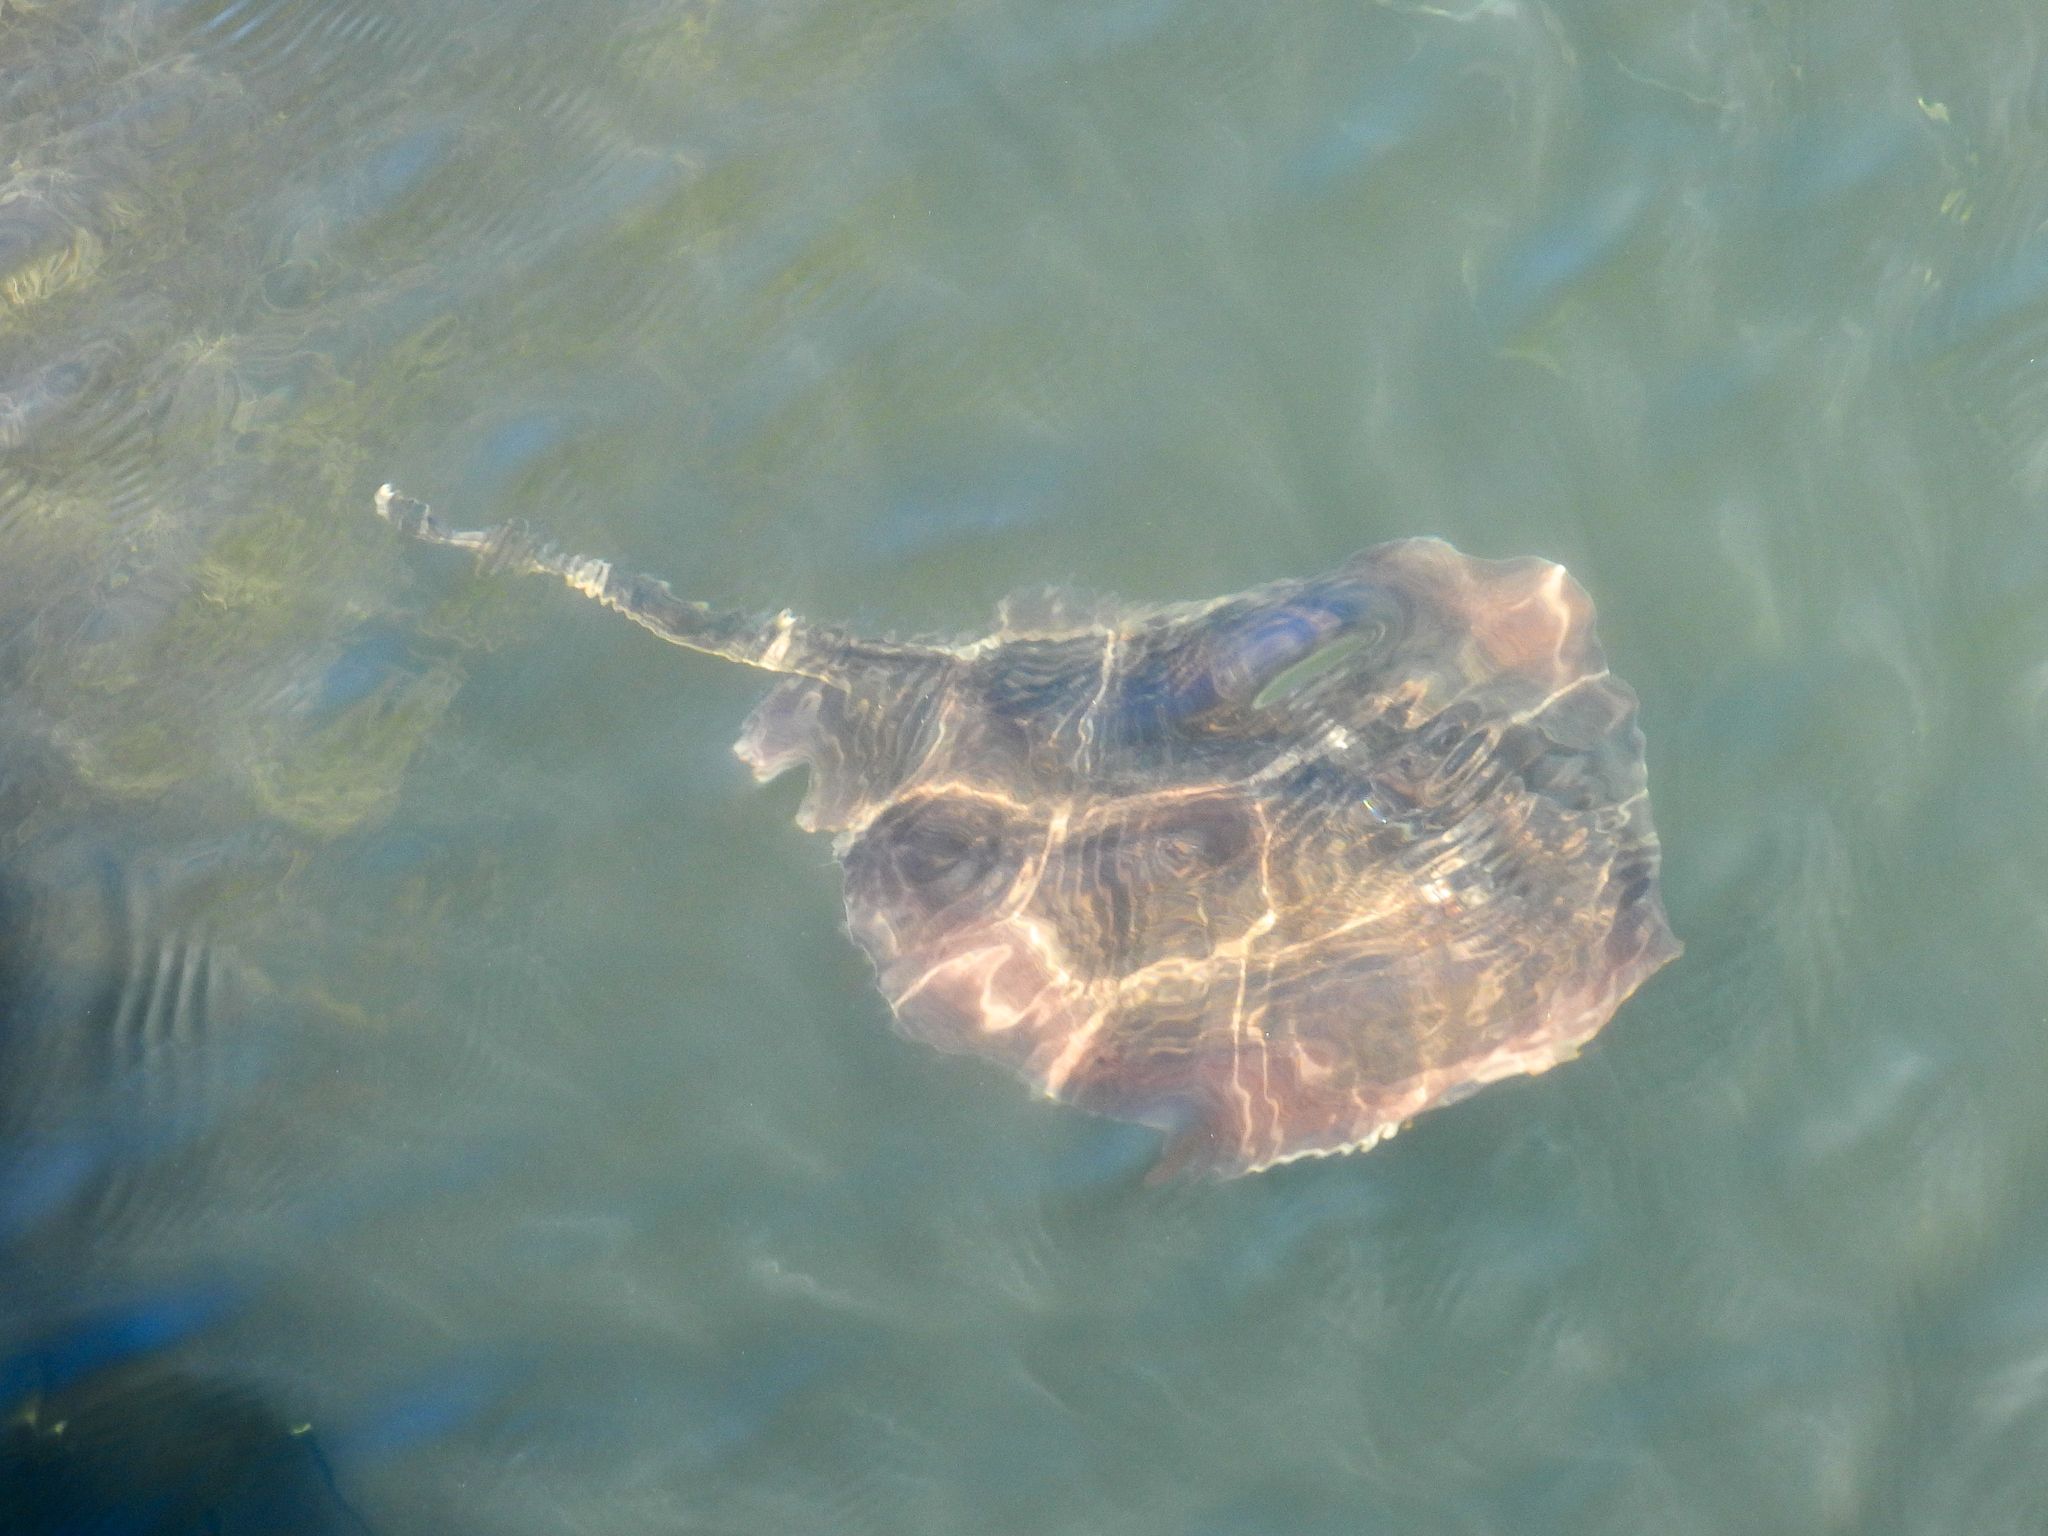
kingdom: Animalia
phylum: Chordata
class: Elasmobranchii
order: Myliobatiformes
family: Urolophidae
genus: Urolophus
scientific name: Urolophus halleri
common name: Round stingray
